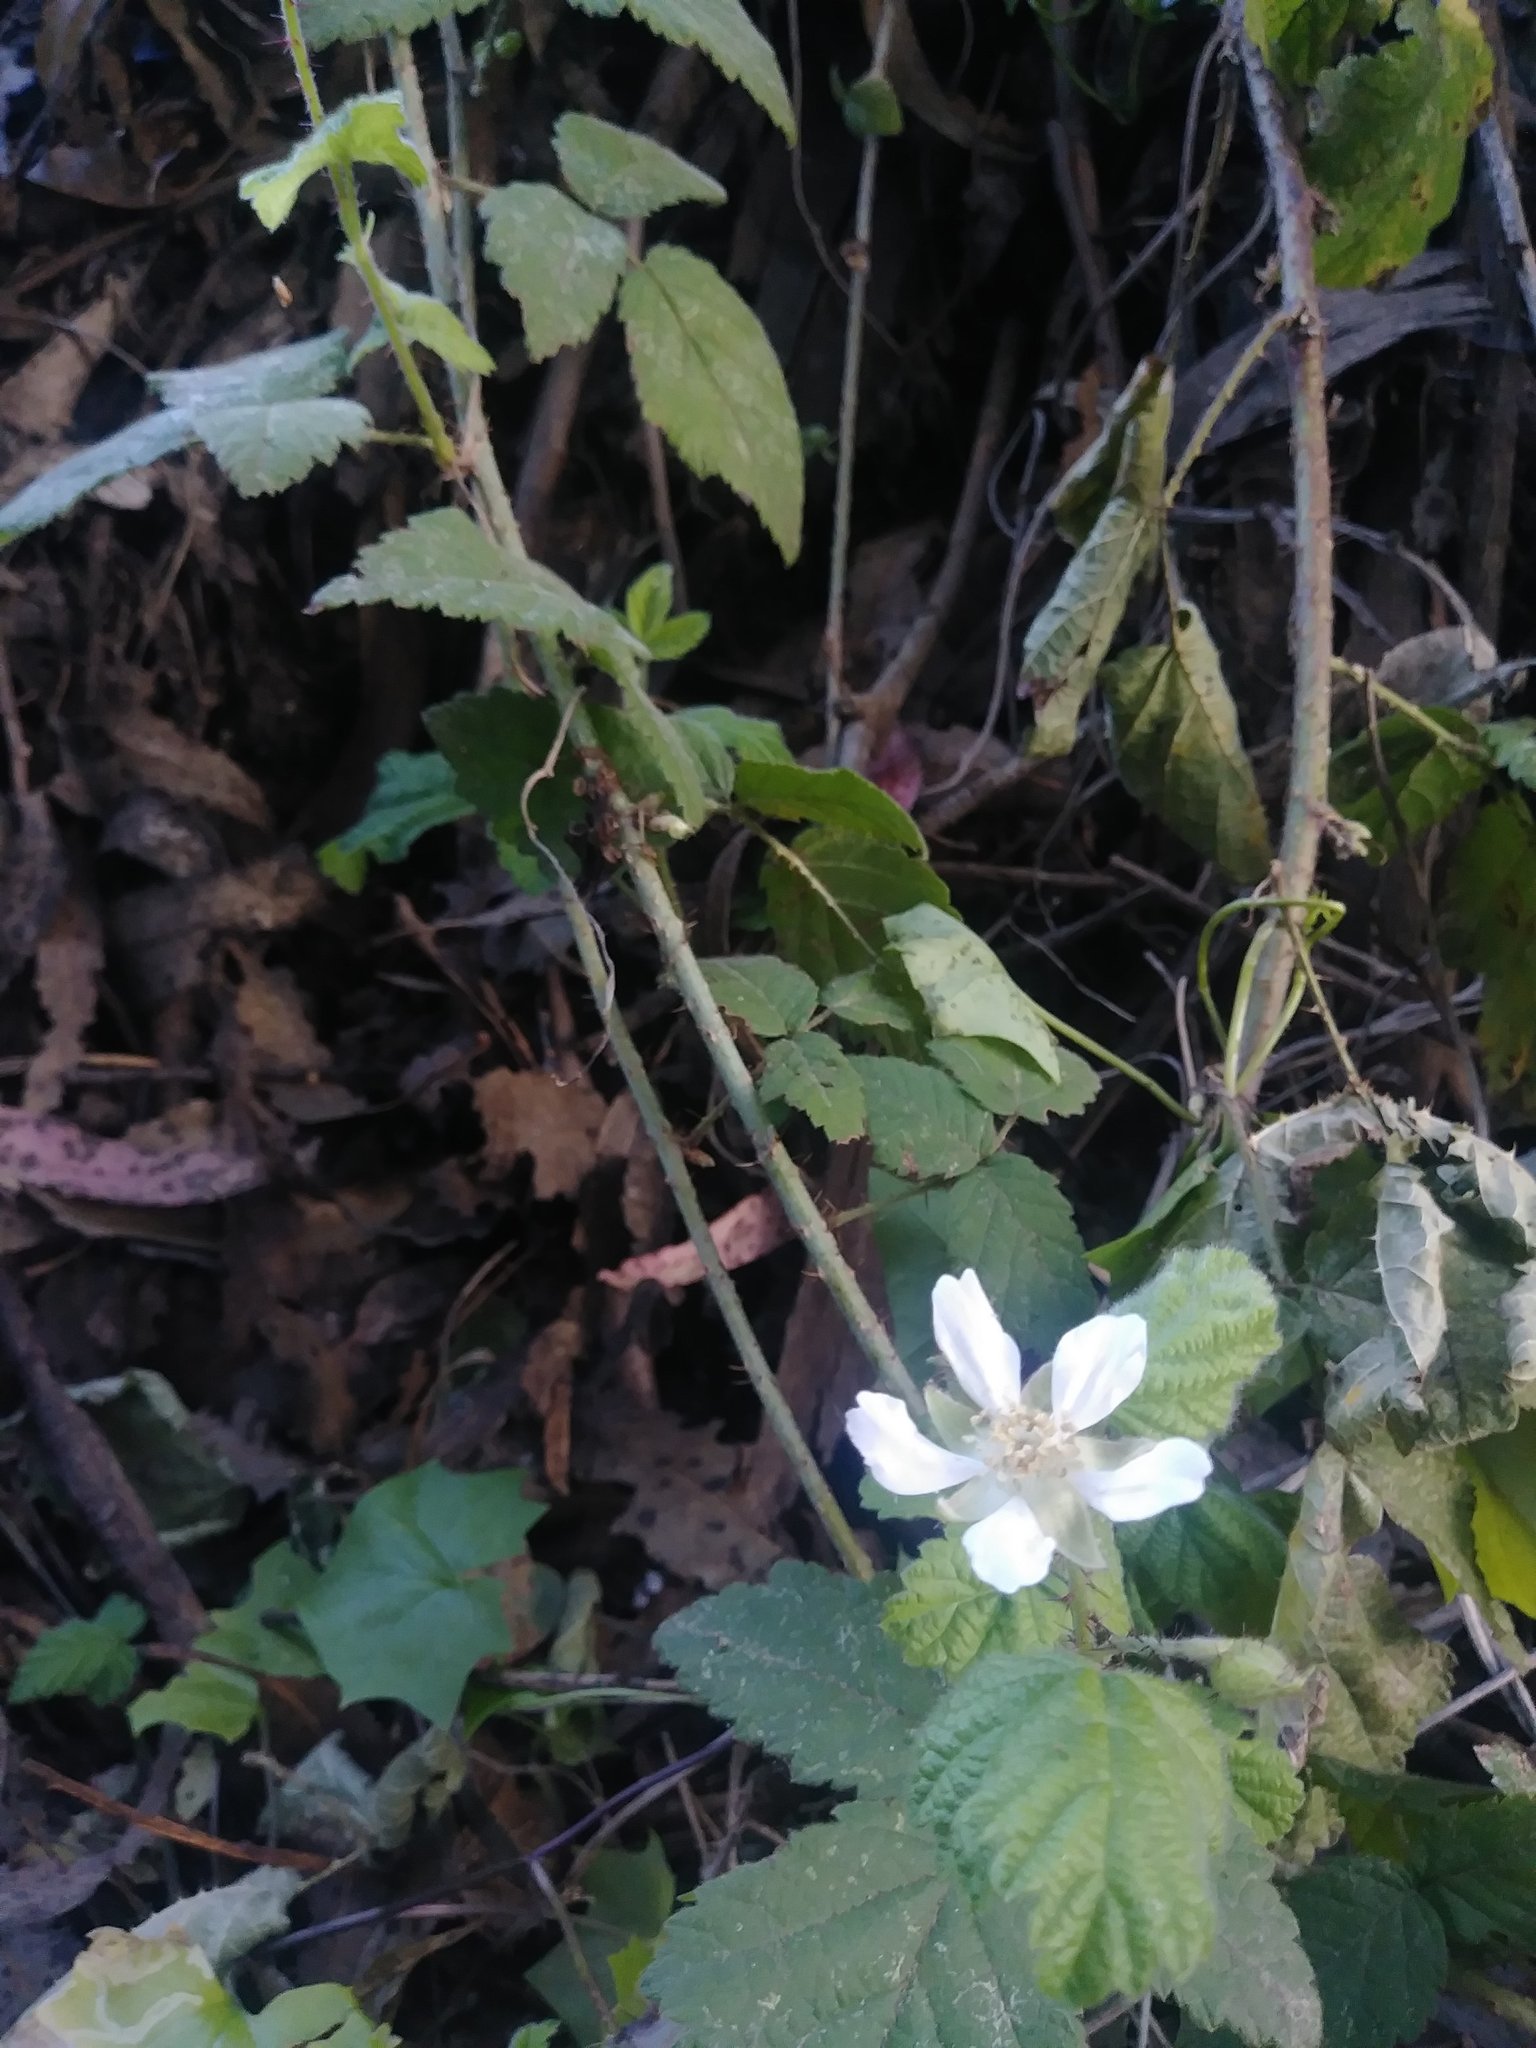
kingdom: Plantae
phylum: Tracheophyta
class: Magnoliopsida
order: Rosales
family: Rosaceae
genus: Rubus
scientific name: Rubus ursinus
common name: Pacific blackberry
